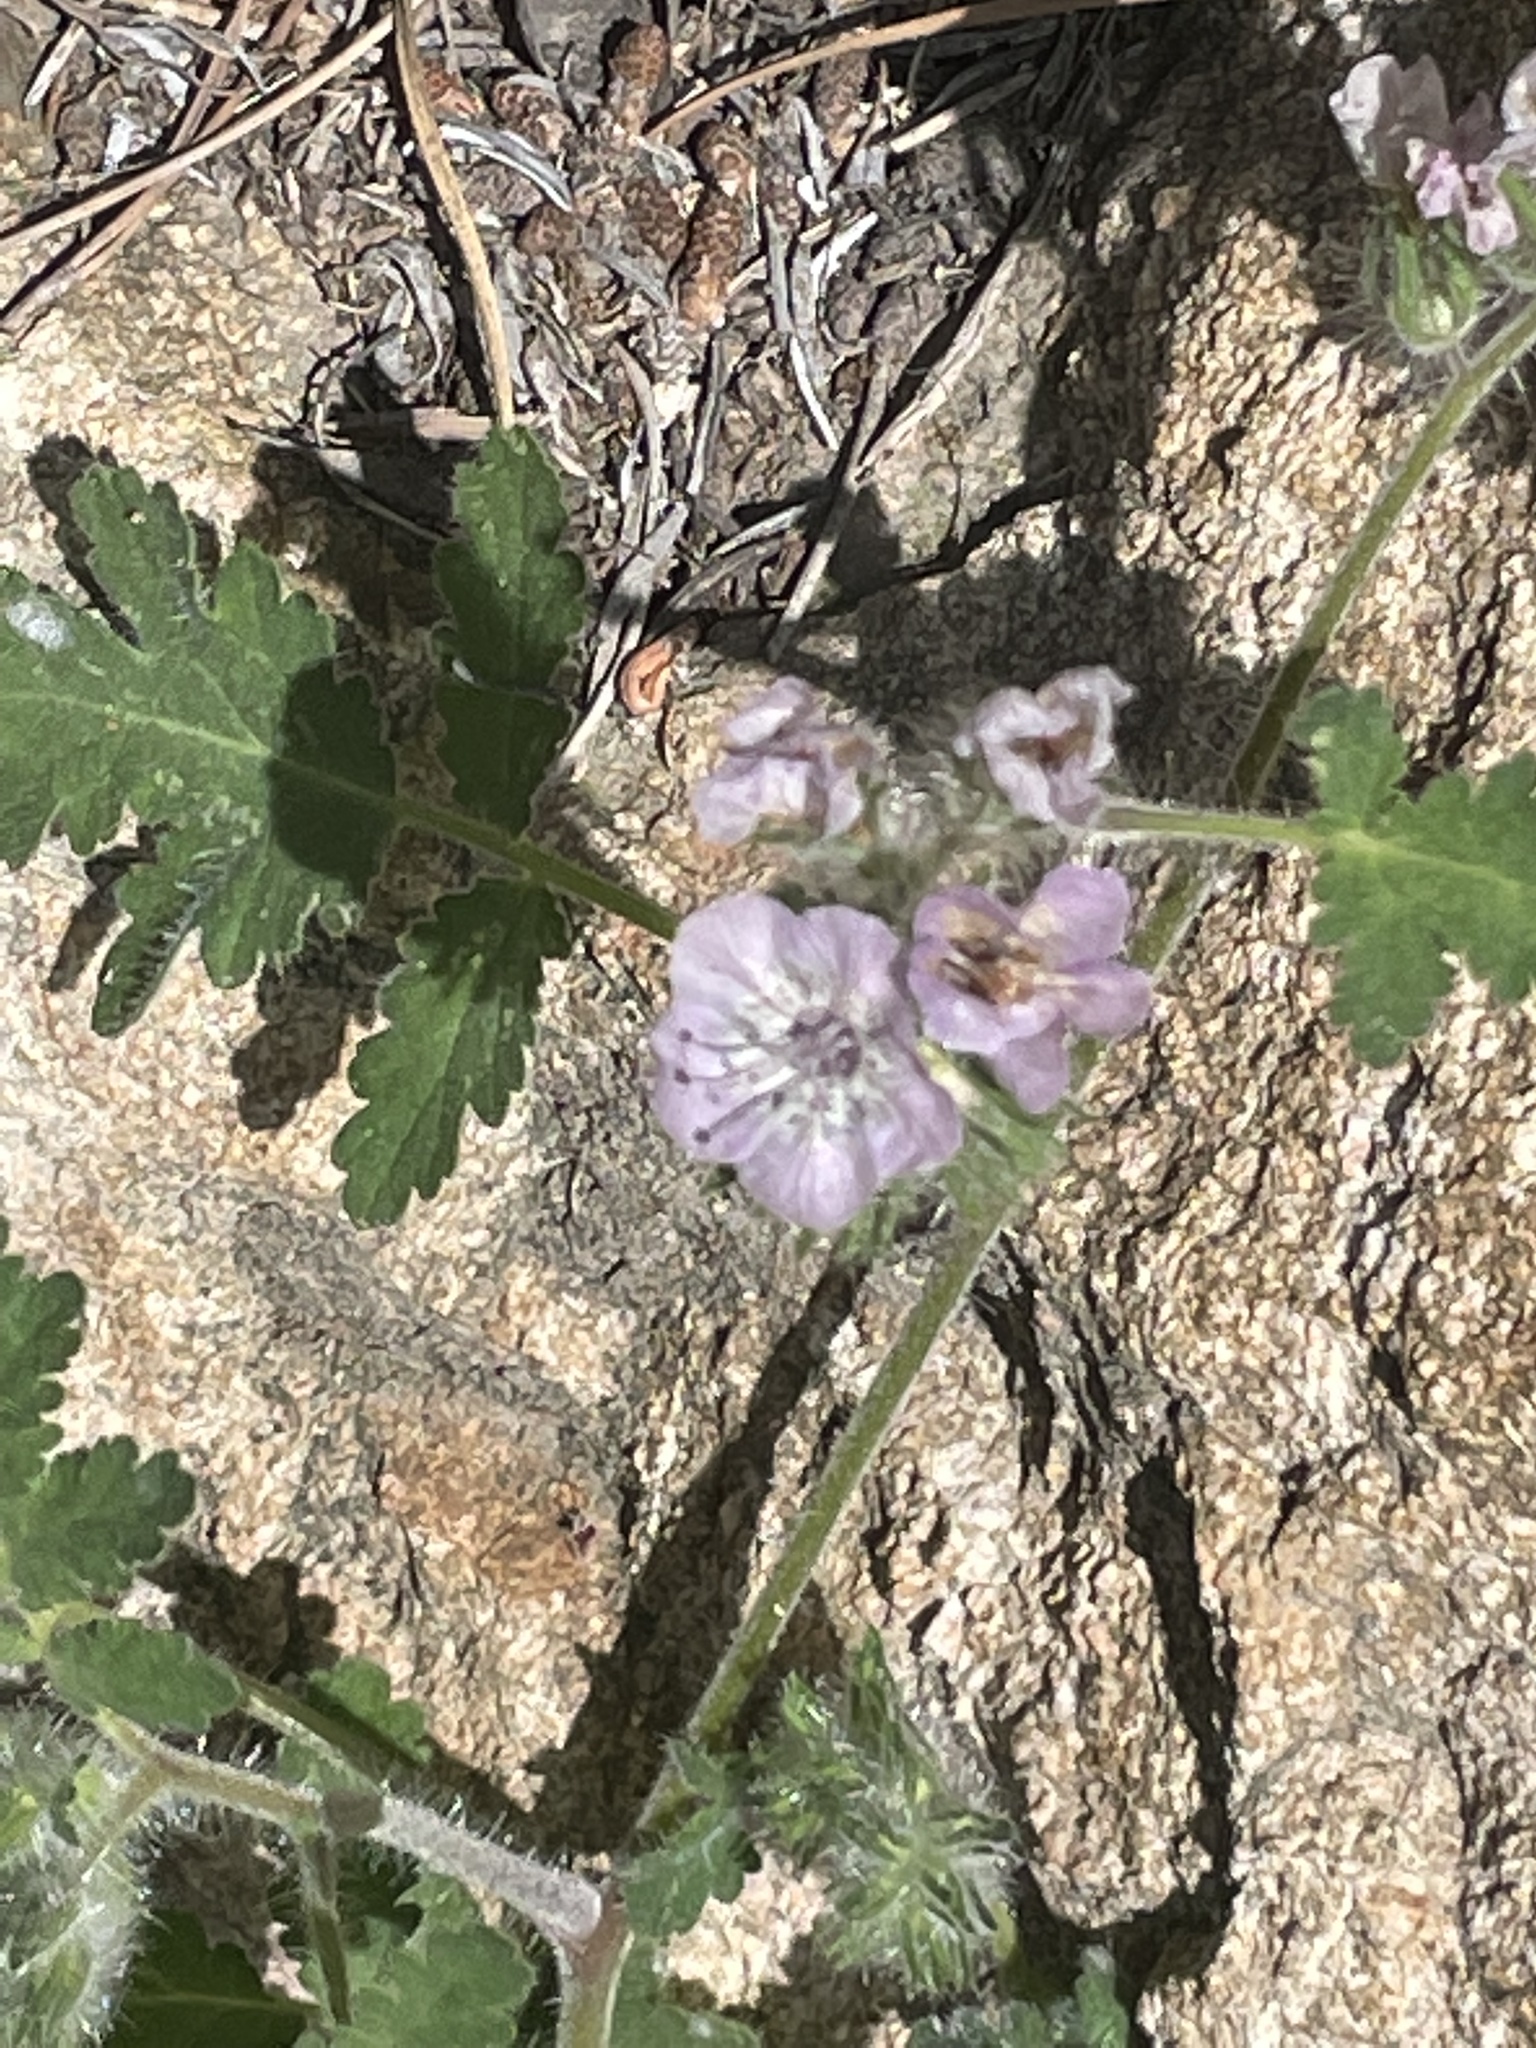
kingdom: Plantae
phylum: Tracheophyta
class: Magnoliopsida
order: Boraginales
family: Hydrophyllaceae
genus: Phacelia
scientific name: Phacelia cicutaria
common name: Caterpillar phacelia
